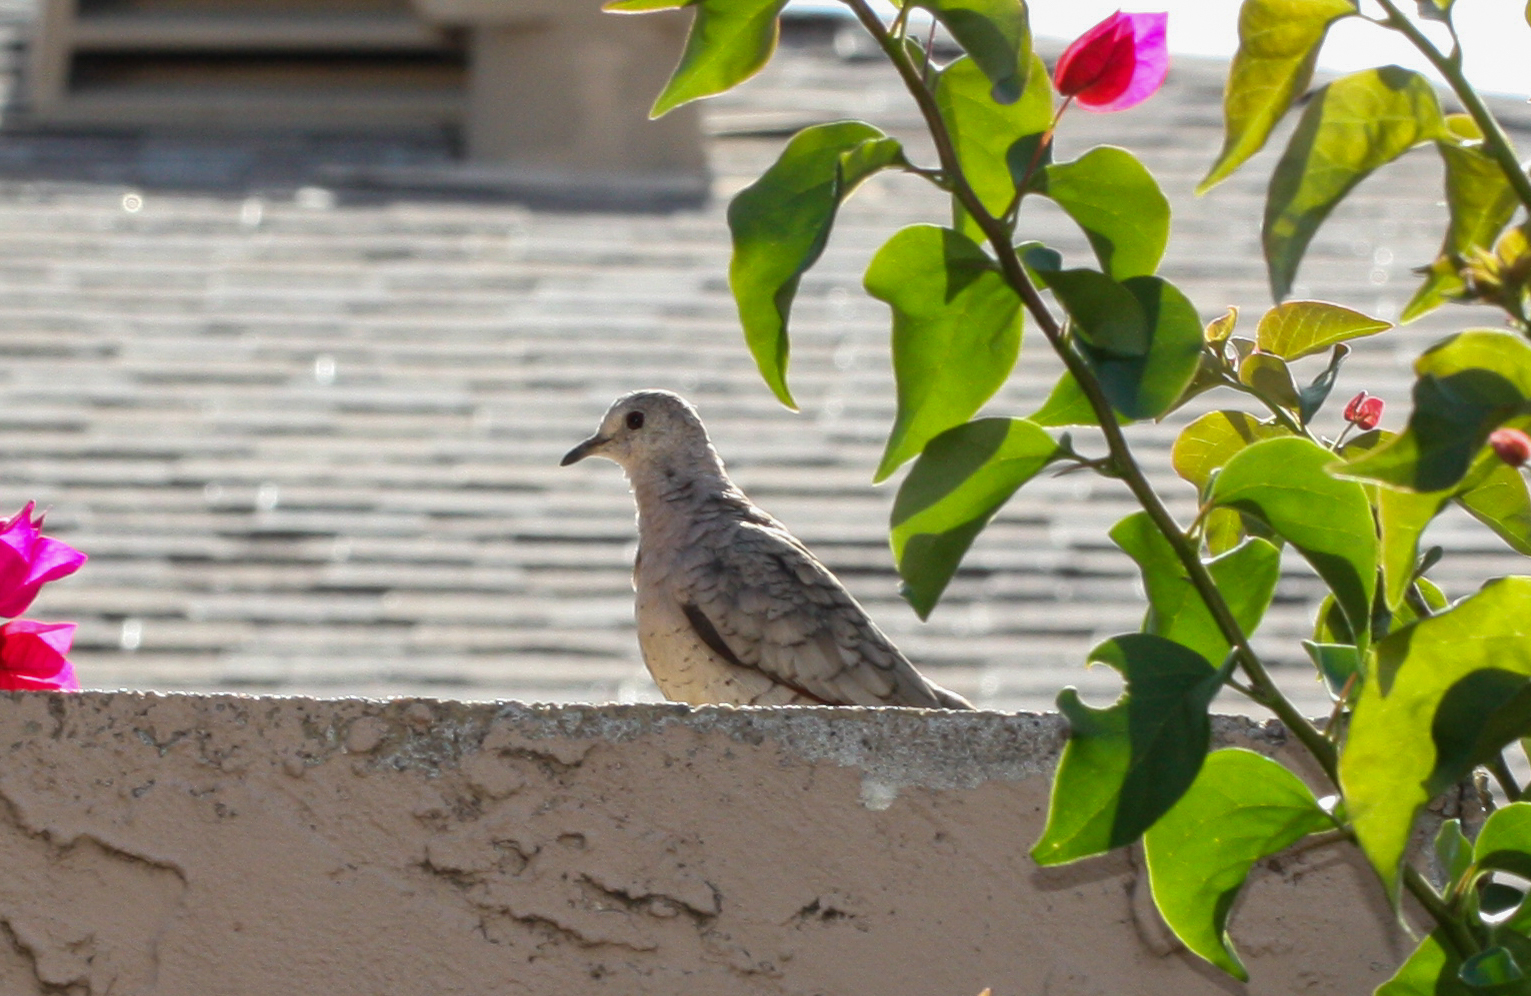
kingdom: Animalia
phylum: Chordata
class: Aves
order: Columbiformes
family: Columbidae
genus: Columbina
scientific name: Columbina inca
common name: Inca dove
